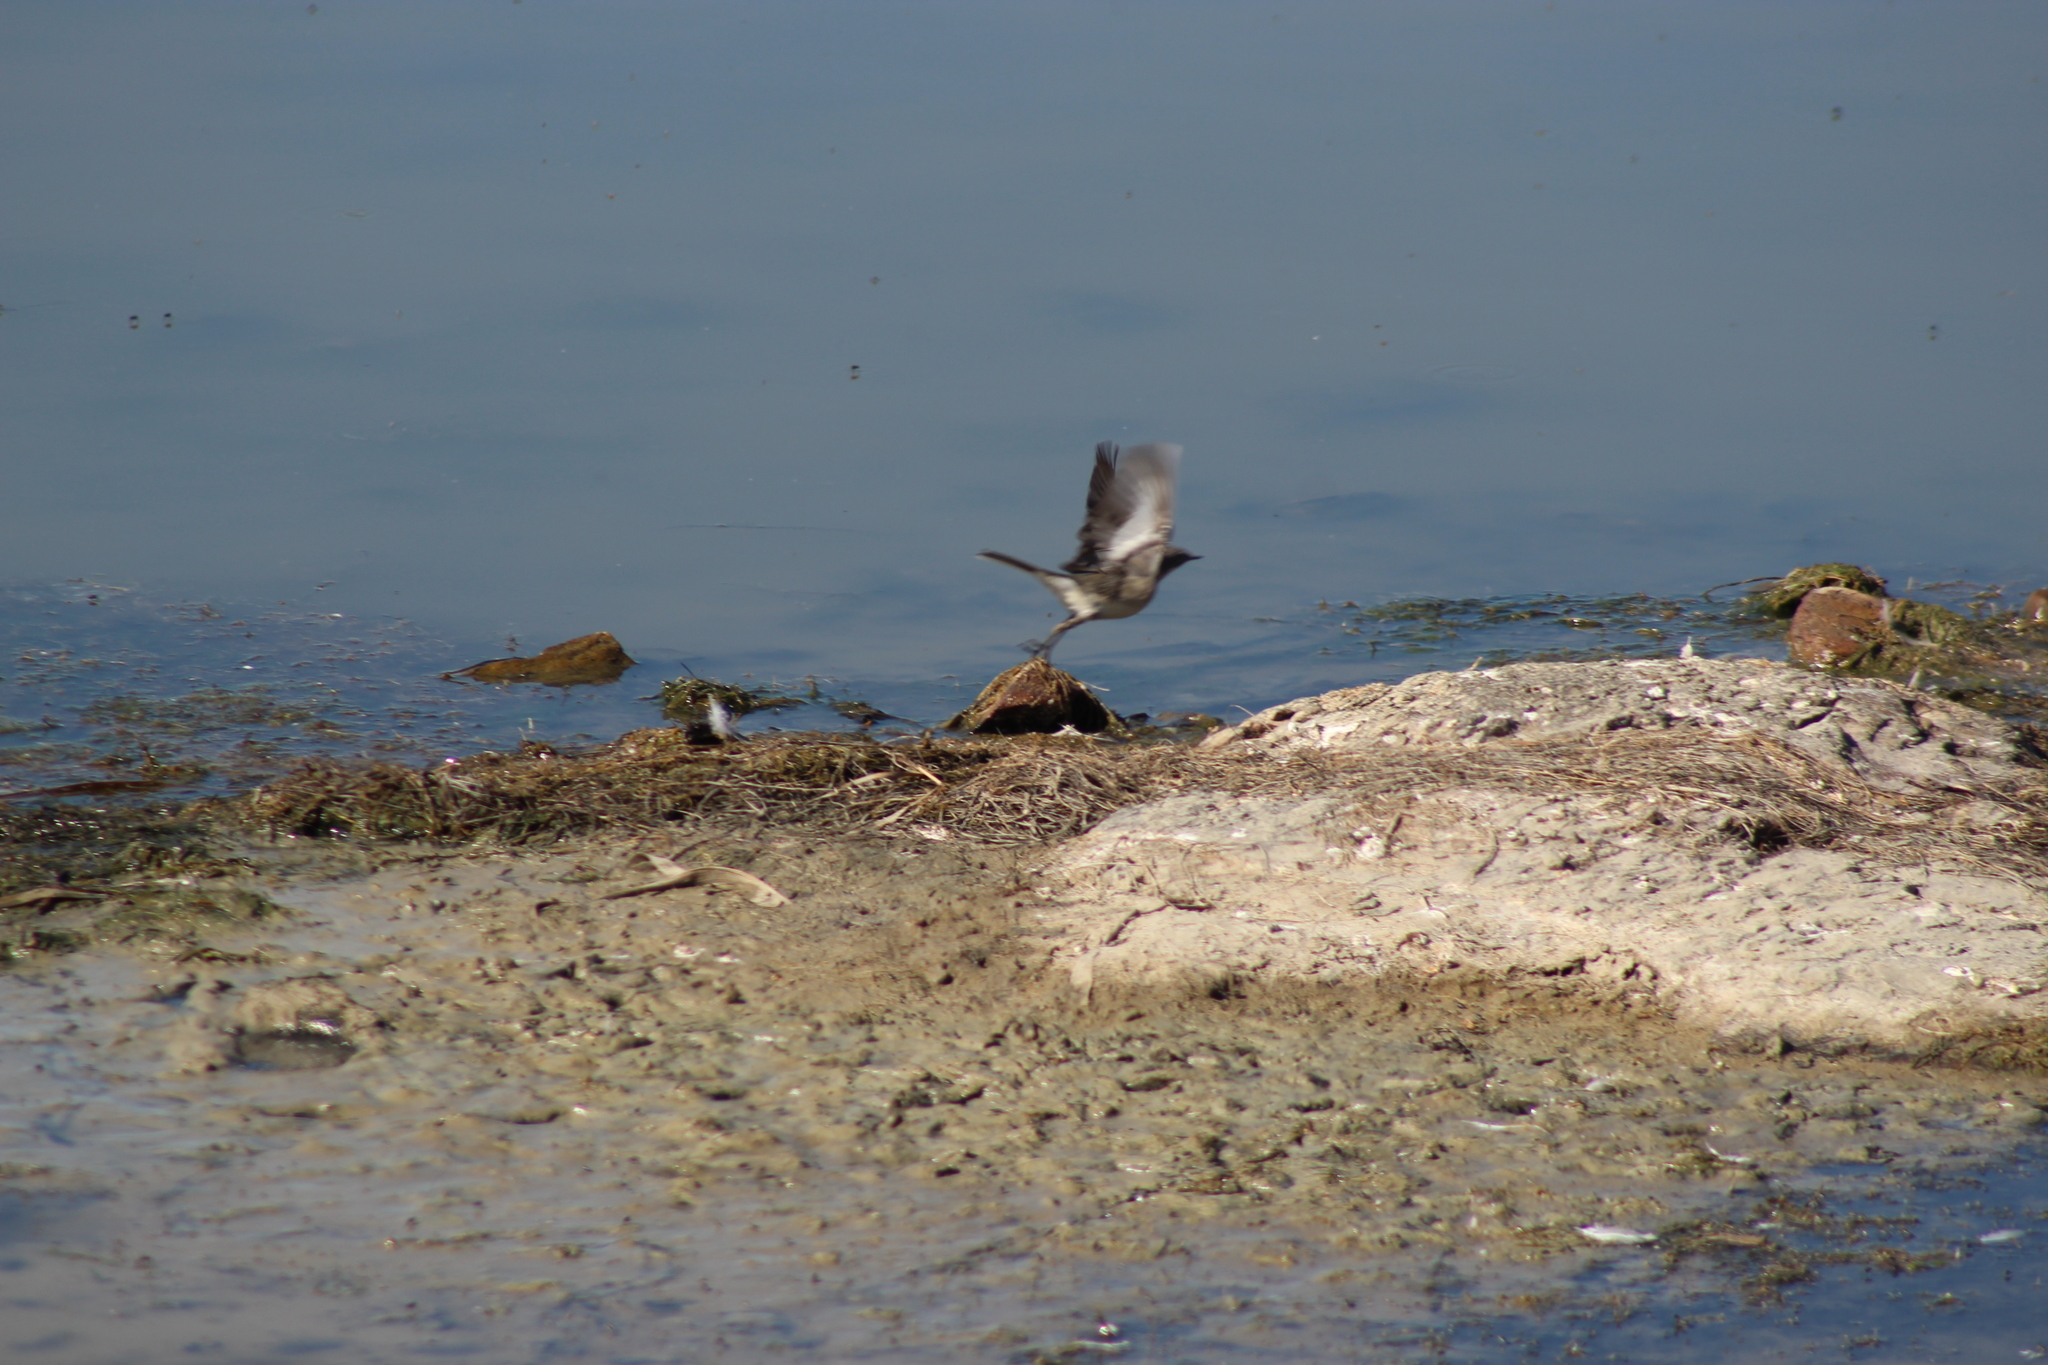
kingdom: Animalia
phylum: Chordata
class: Aves
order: Passeriformes
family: Motacillidae
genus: Motacilla
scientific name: Motacilla capensis
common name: Cape wagtail
